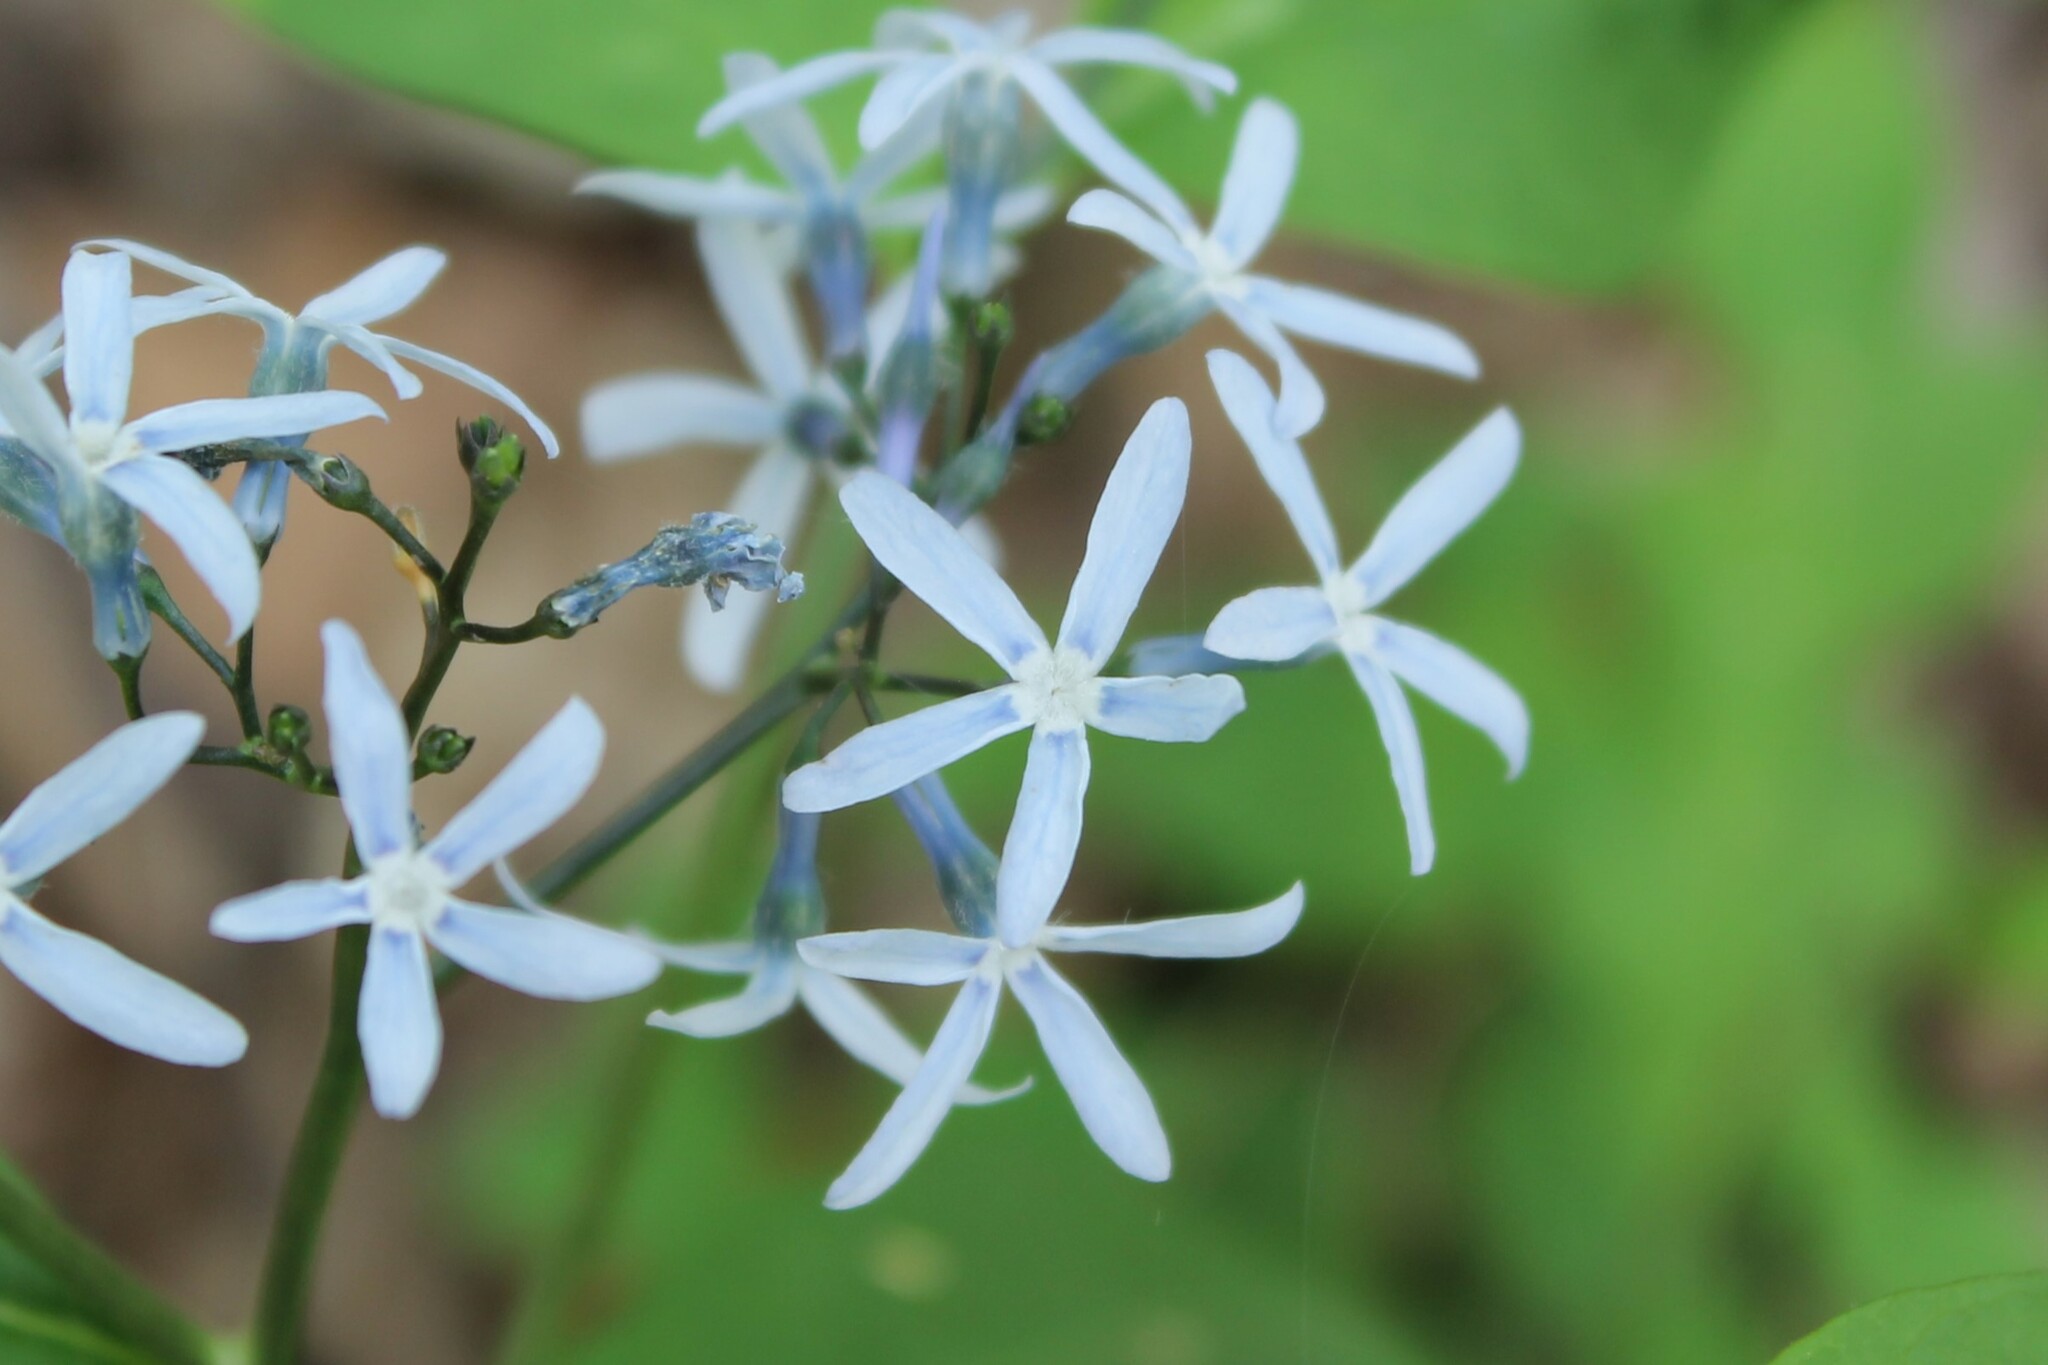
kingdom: Plantae
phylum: Tracheophyta
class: Magnoliopsida
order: Gentianales
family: Apocynaceae
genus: Amsonia
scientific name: Amsonia tabernaemontana
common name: Texas-star
